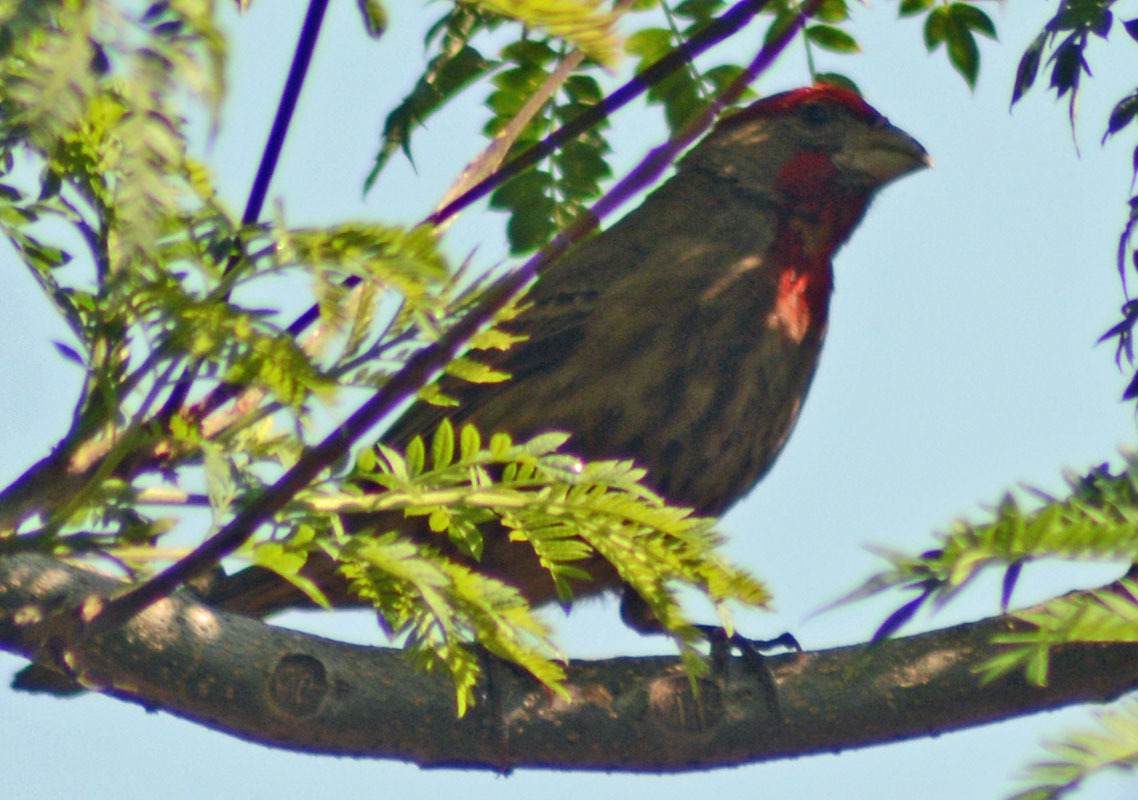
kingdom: Animalia
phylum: Chordata
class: Aves
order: Passeriformes
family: Fringillidae
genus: Haemorhous
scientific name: Haemorhous mexicanus
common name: House finch
